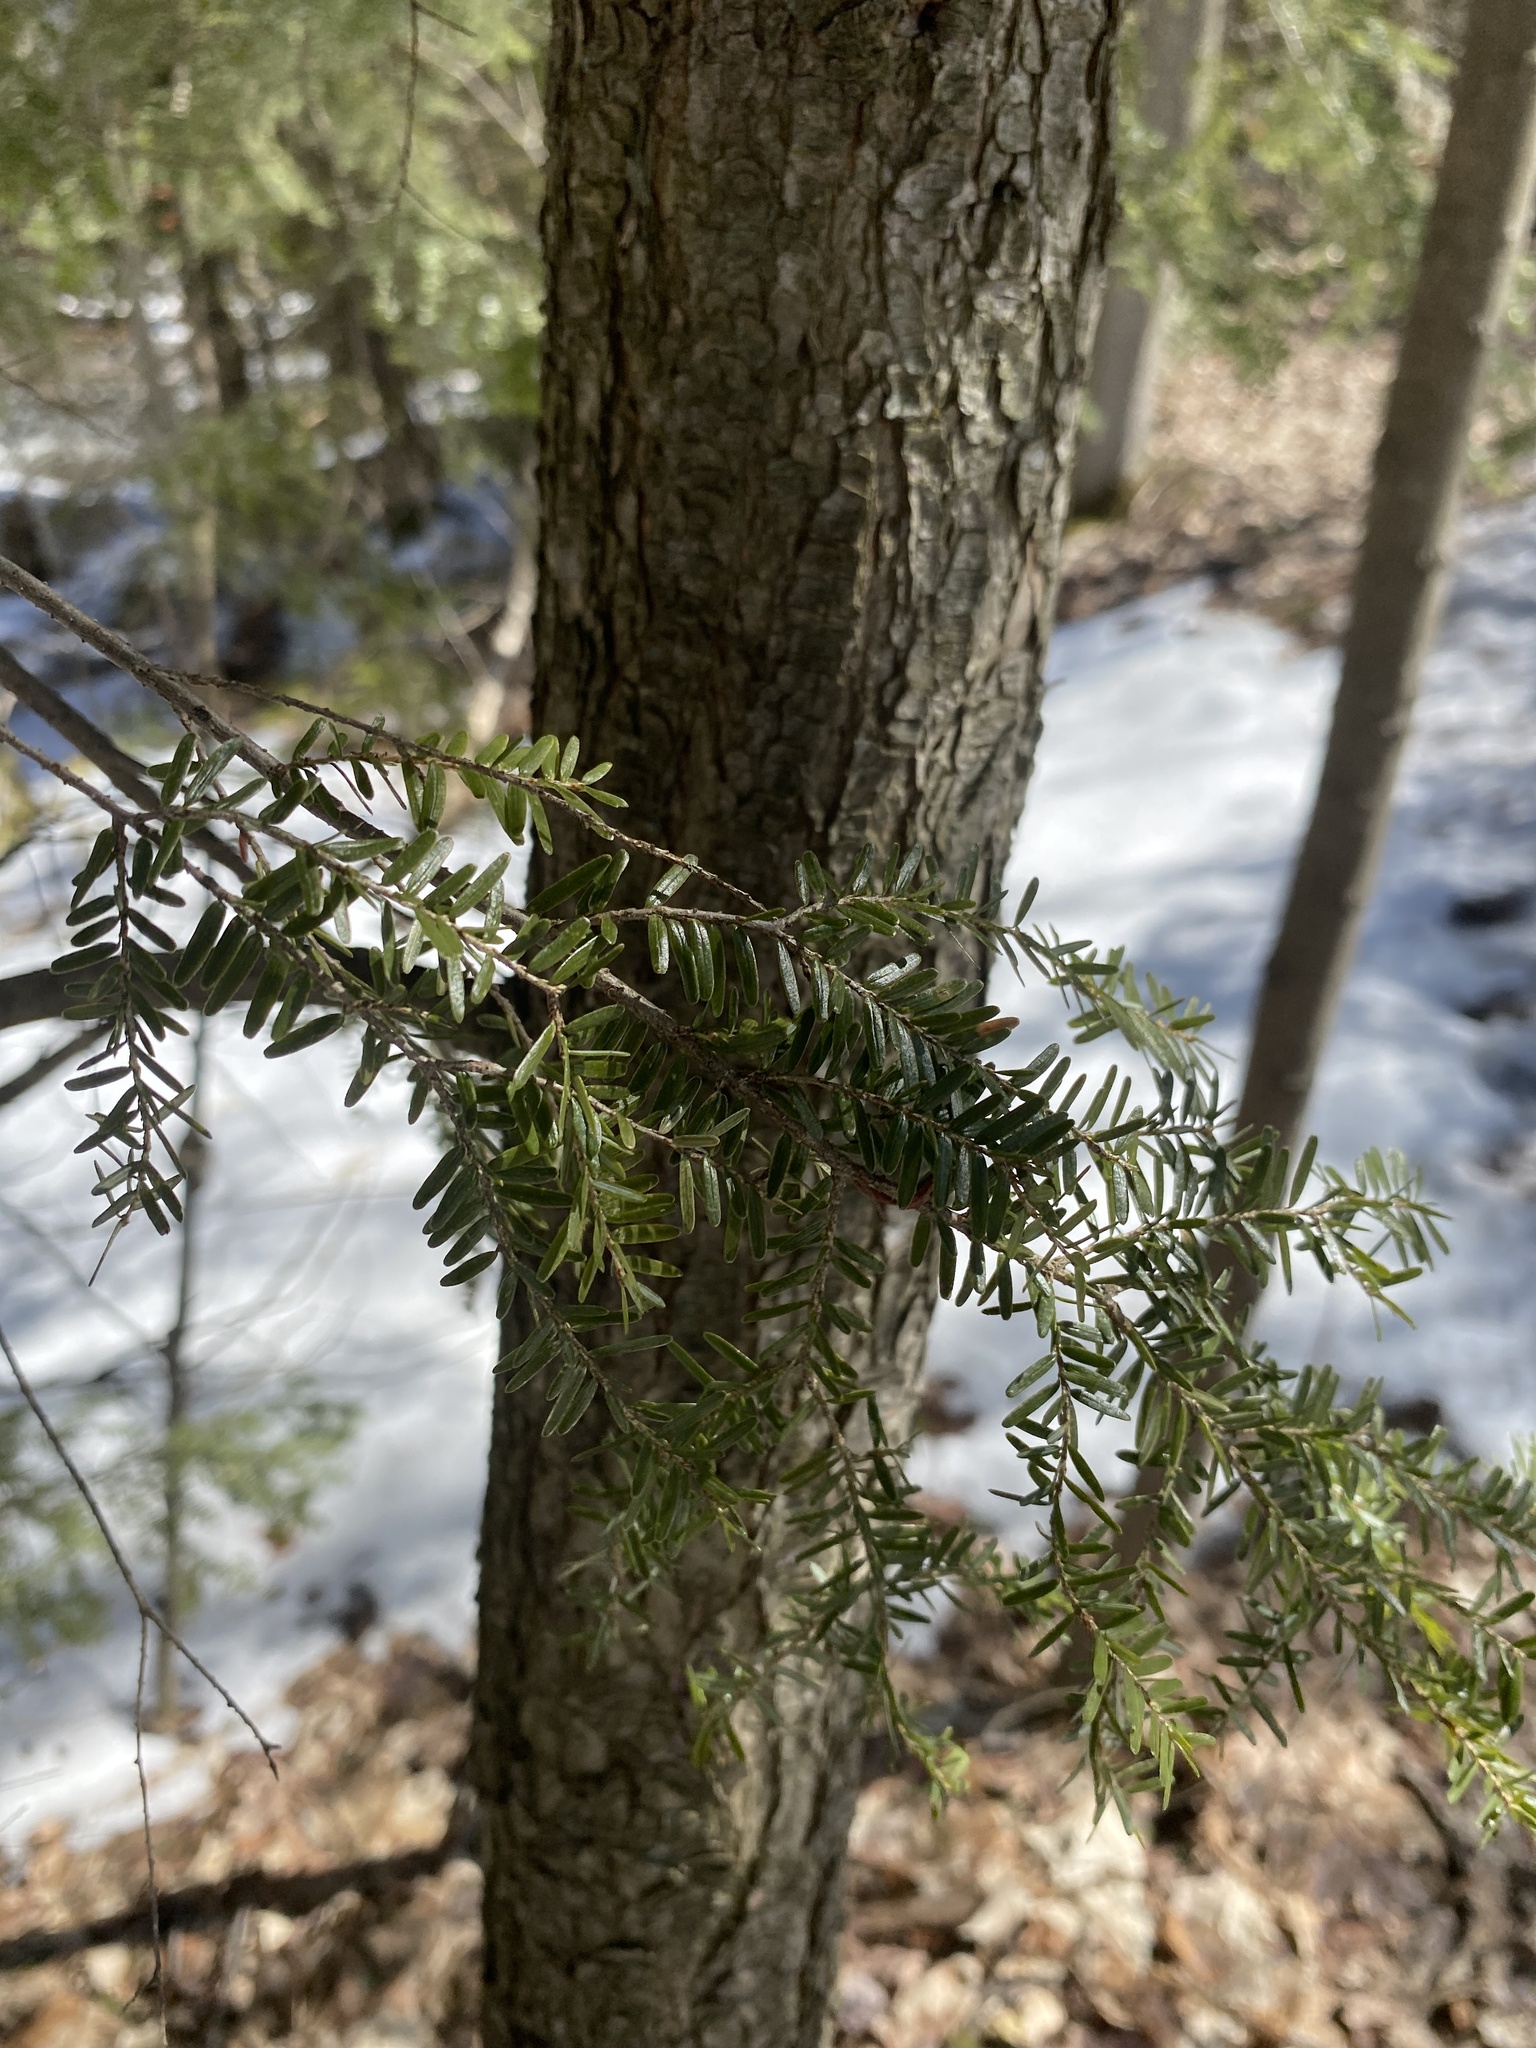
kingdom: Plantae
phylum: Tracheophyta
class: Pinopsida
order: Pinales
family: Pinaceae
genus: Tsuga
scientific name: Tsuga canadensis
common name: Eastern hemlock
